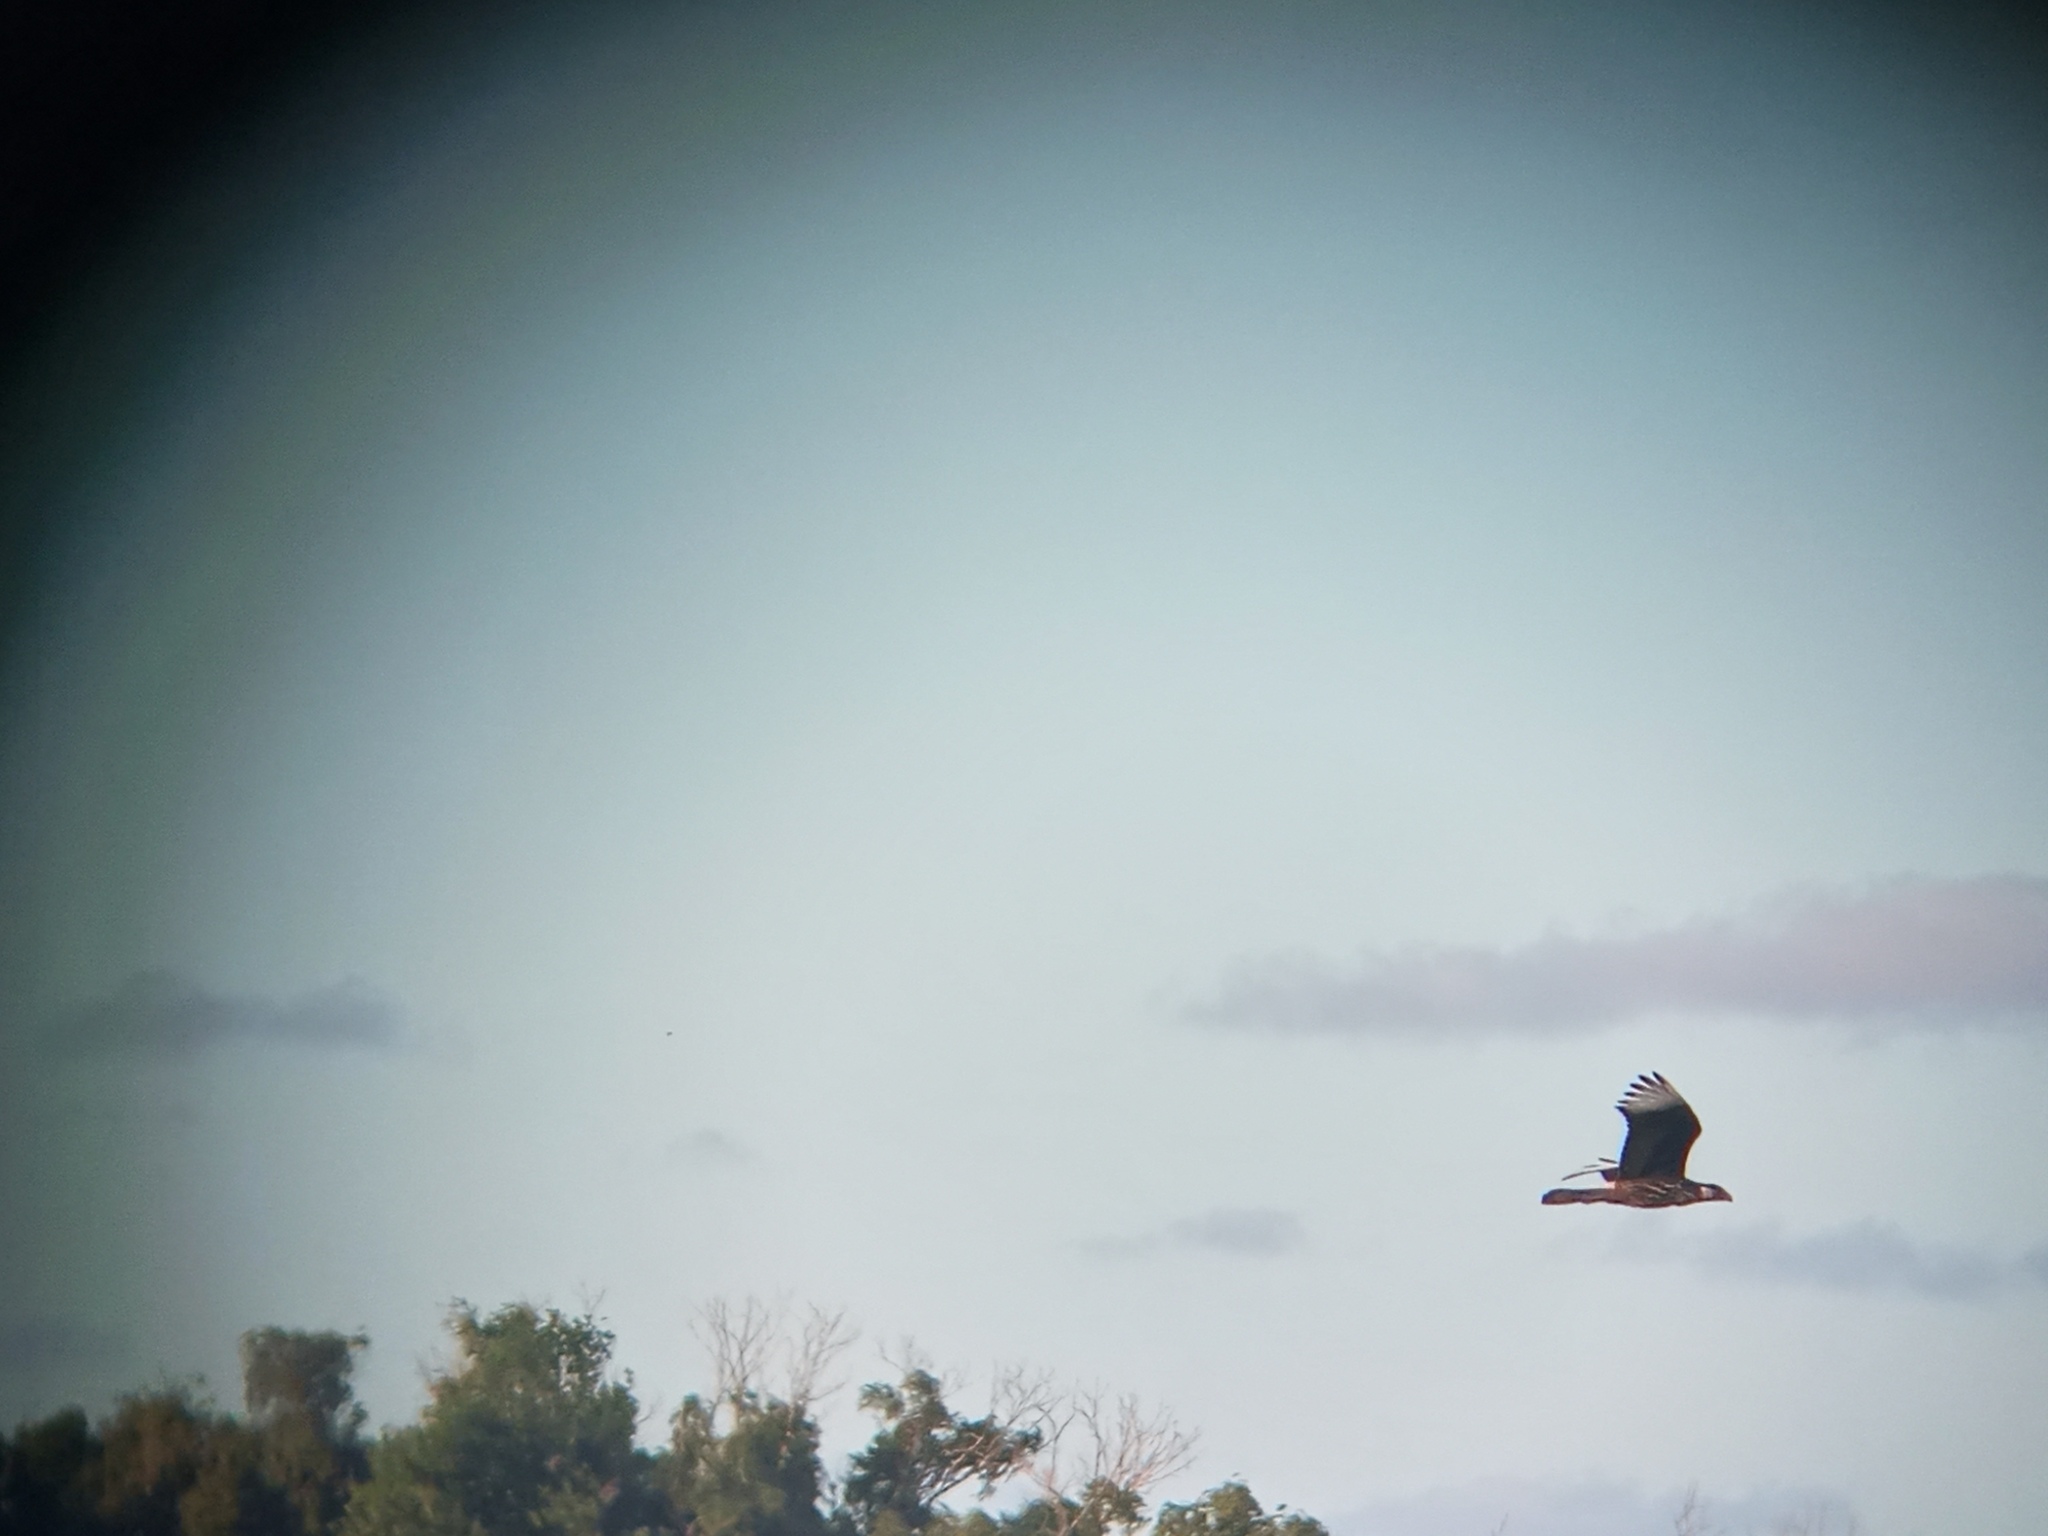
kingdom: Animalia
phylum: Chordata
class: Aves
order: Falconiformes
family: Falconidae
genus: Caracara
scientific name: Caracara plancus
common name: Southern caracara
